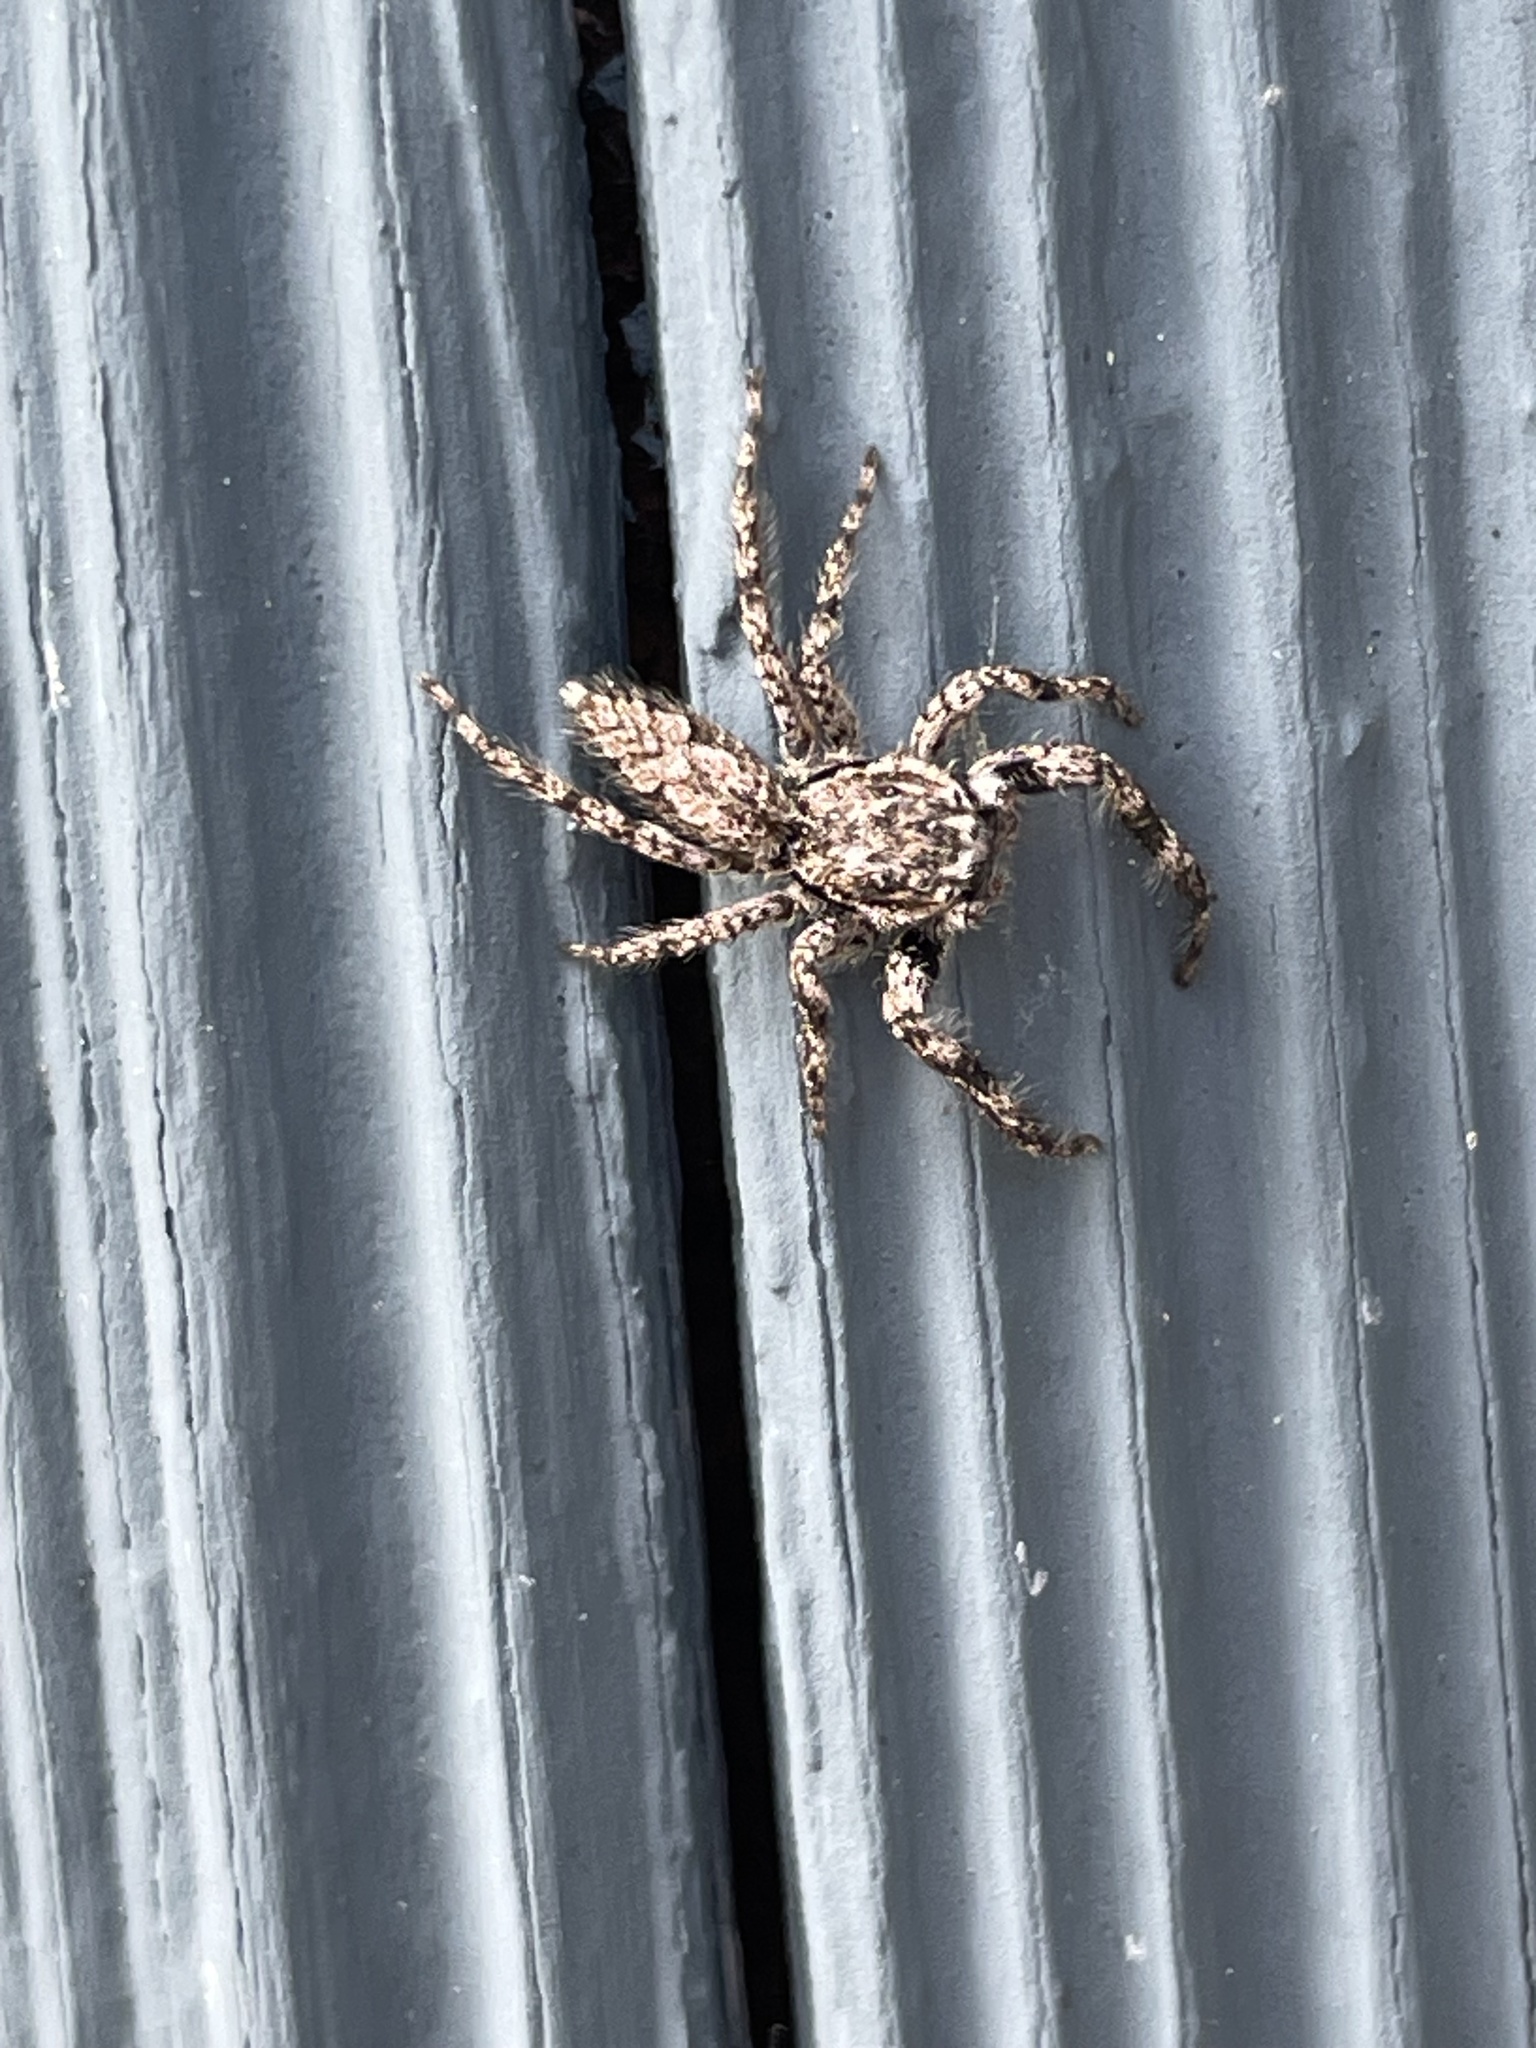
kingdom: Animalia
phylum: Arthropoda
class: Arachnida
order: Araneae
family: Salticidae
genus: Platycryptus
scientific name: Platycryptus undatus
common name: Tan jumping spider
